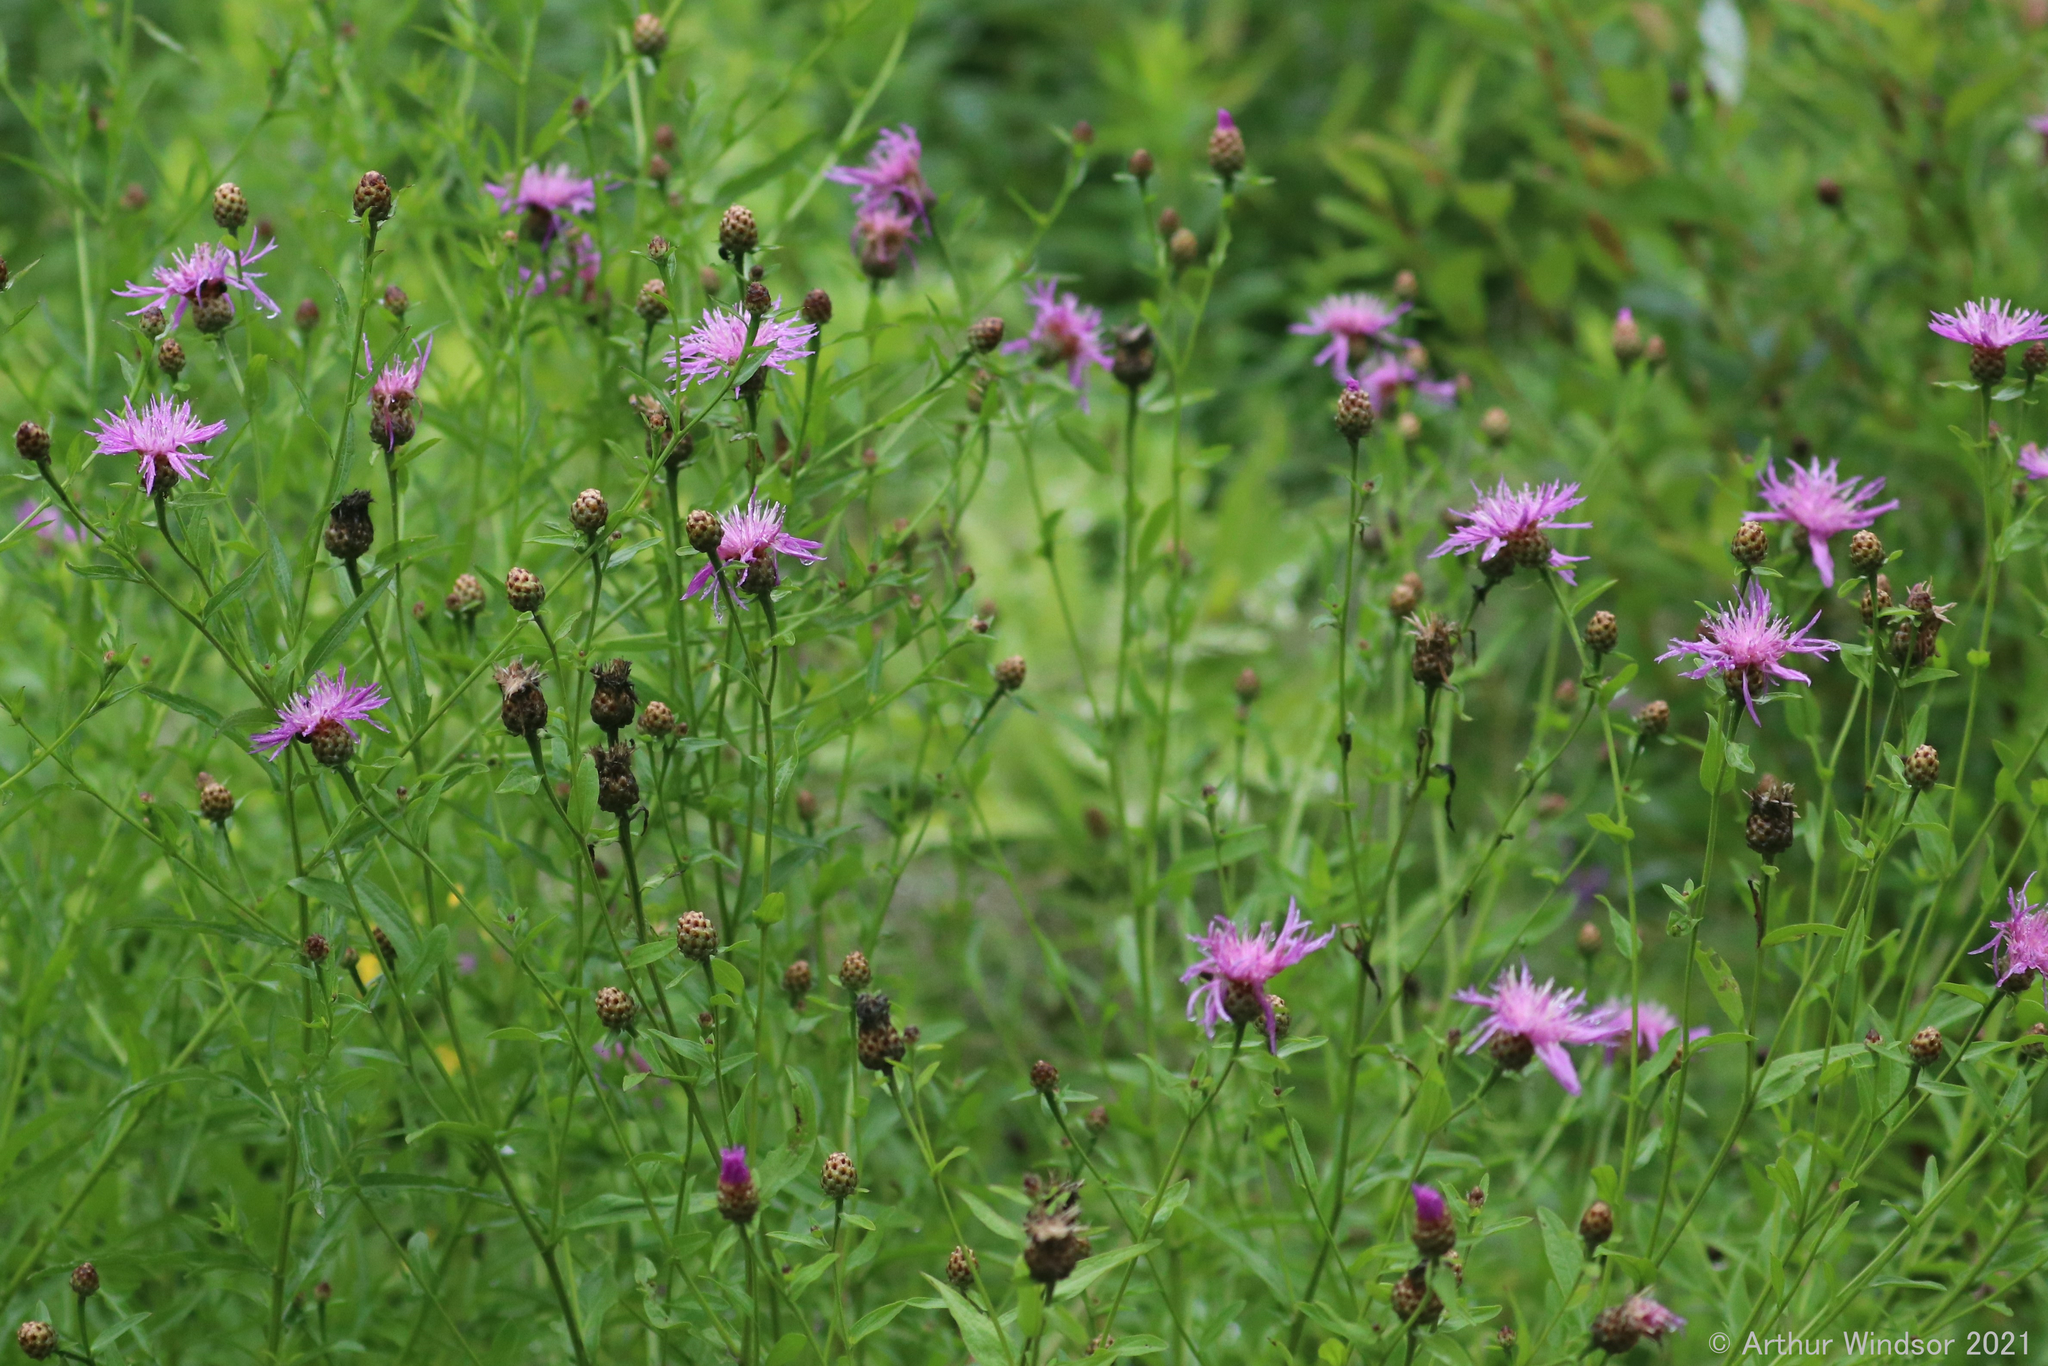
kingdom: Plantae
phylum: Tracheophyta
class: Magnoliopsida
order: Asterales
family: Asteraceae
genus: Centaurea
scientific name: Centaurea jacea
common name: Brown knapweed
